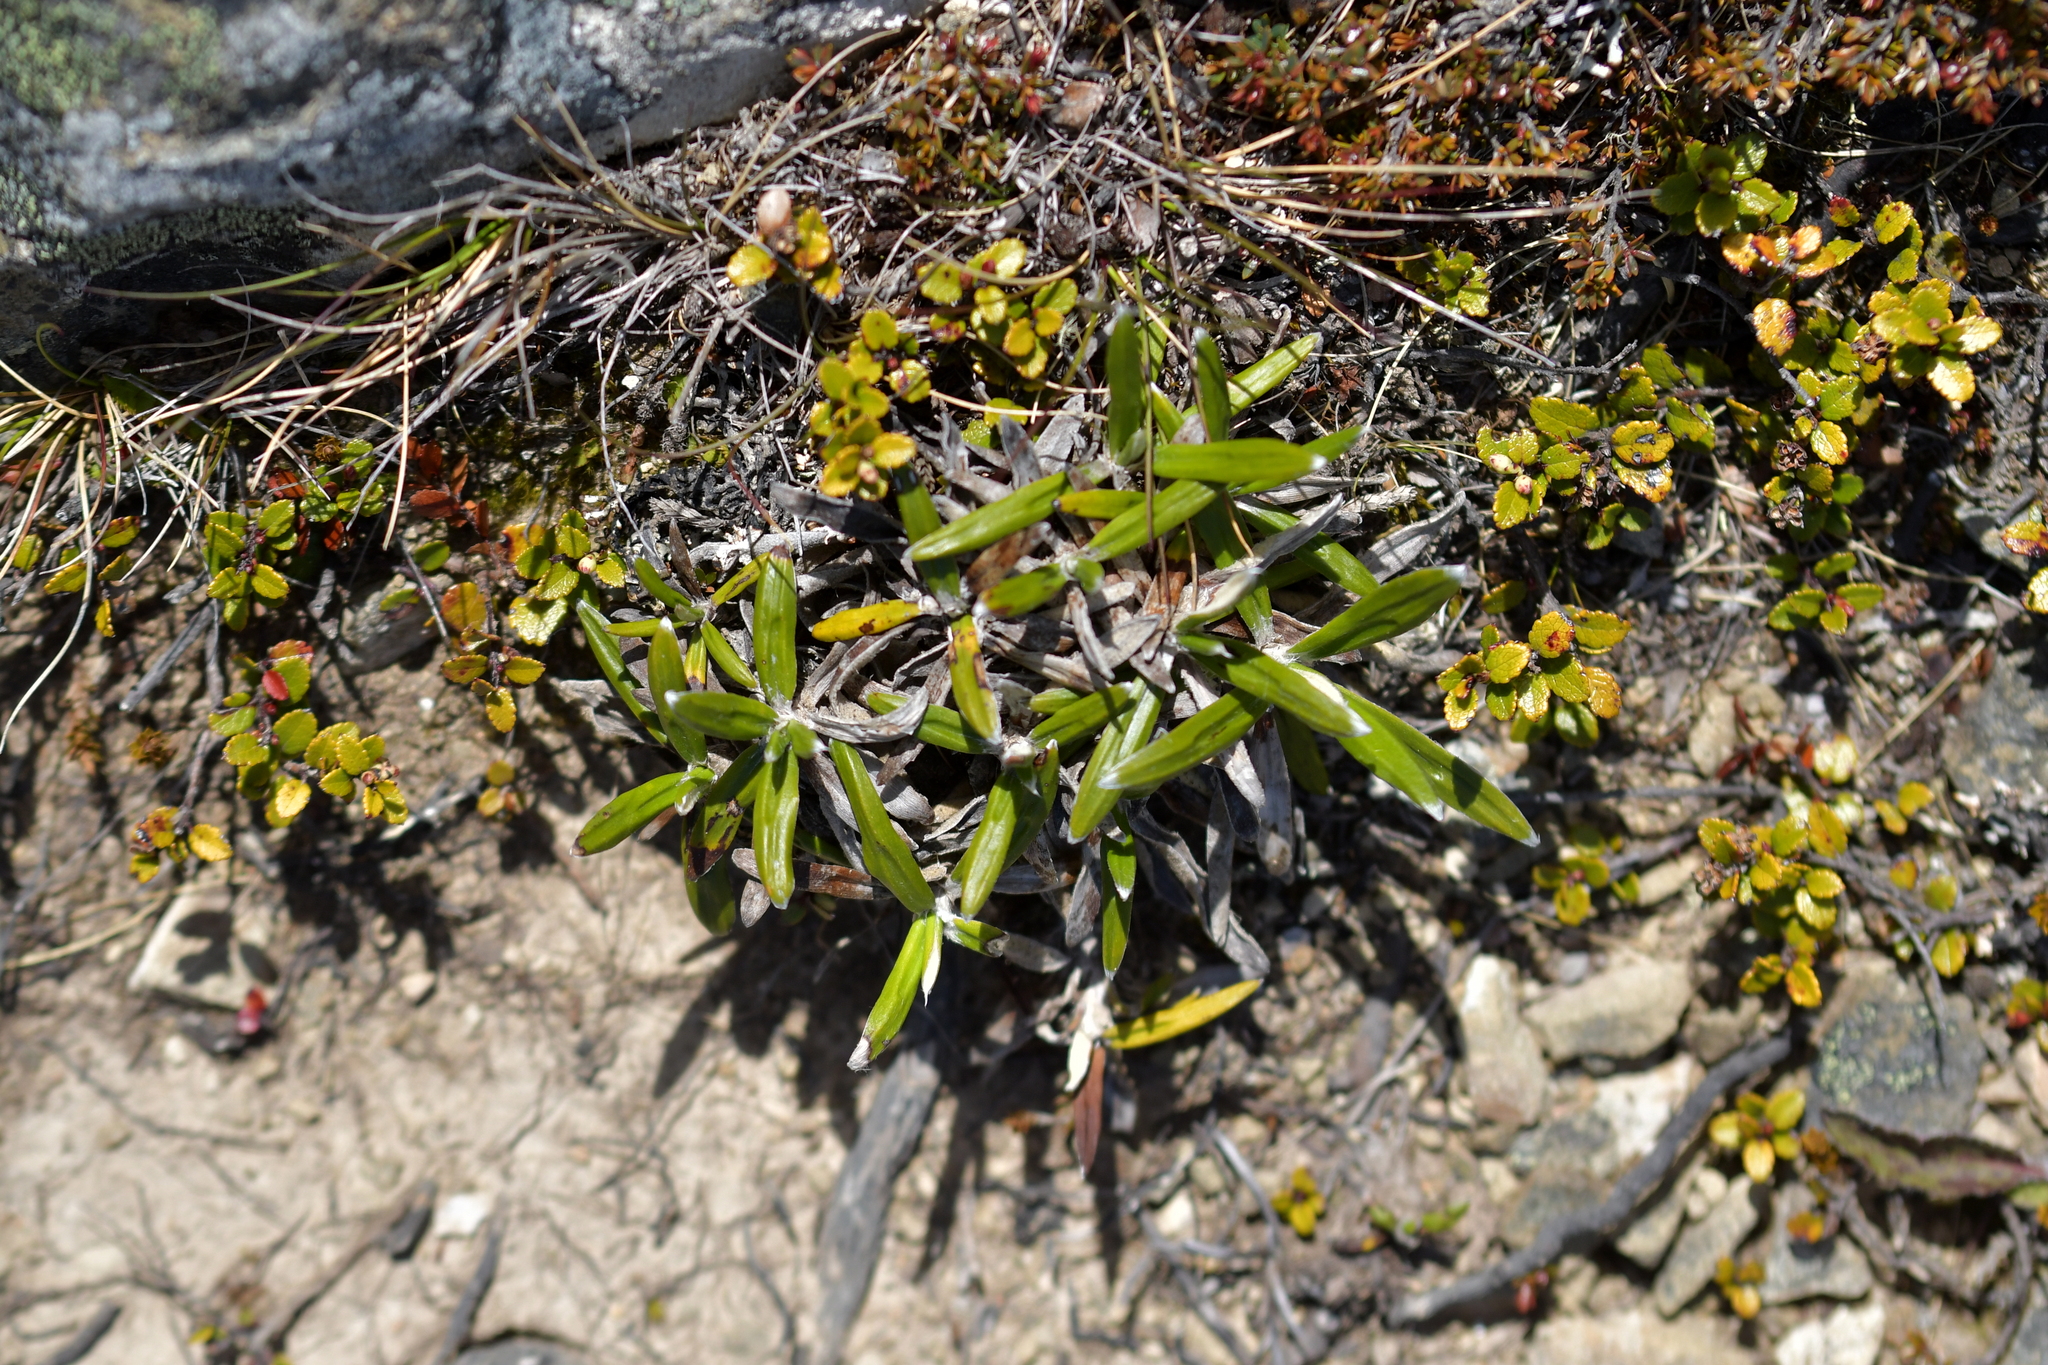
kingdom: Plantae
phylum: Tracheophyta
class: Magnoliopsida
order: Asterales
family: Asteraceae
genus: Celmisia
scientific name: Celmisia spectabilis
